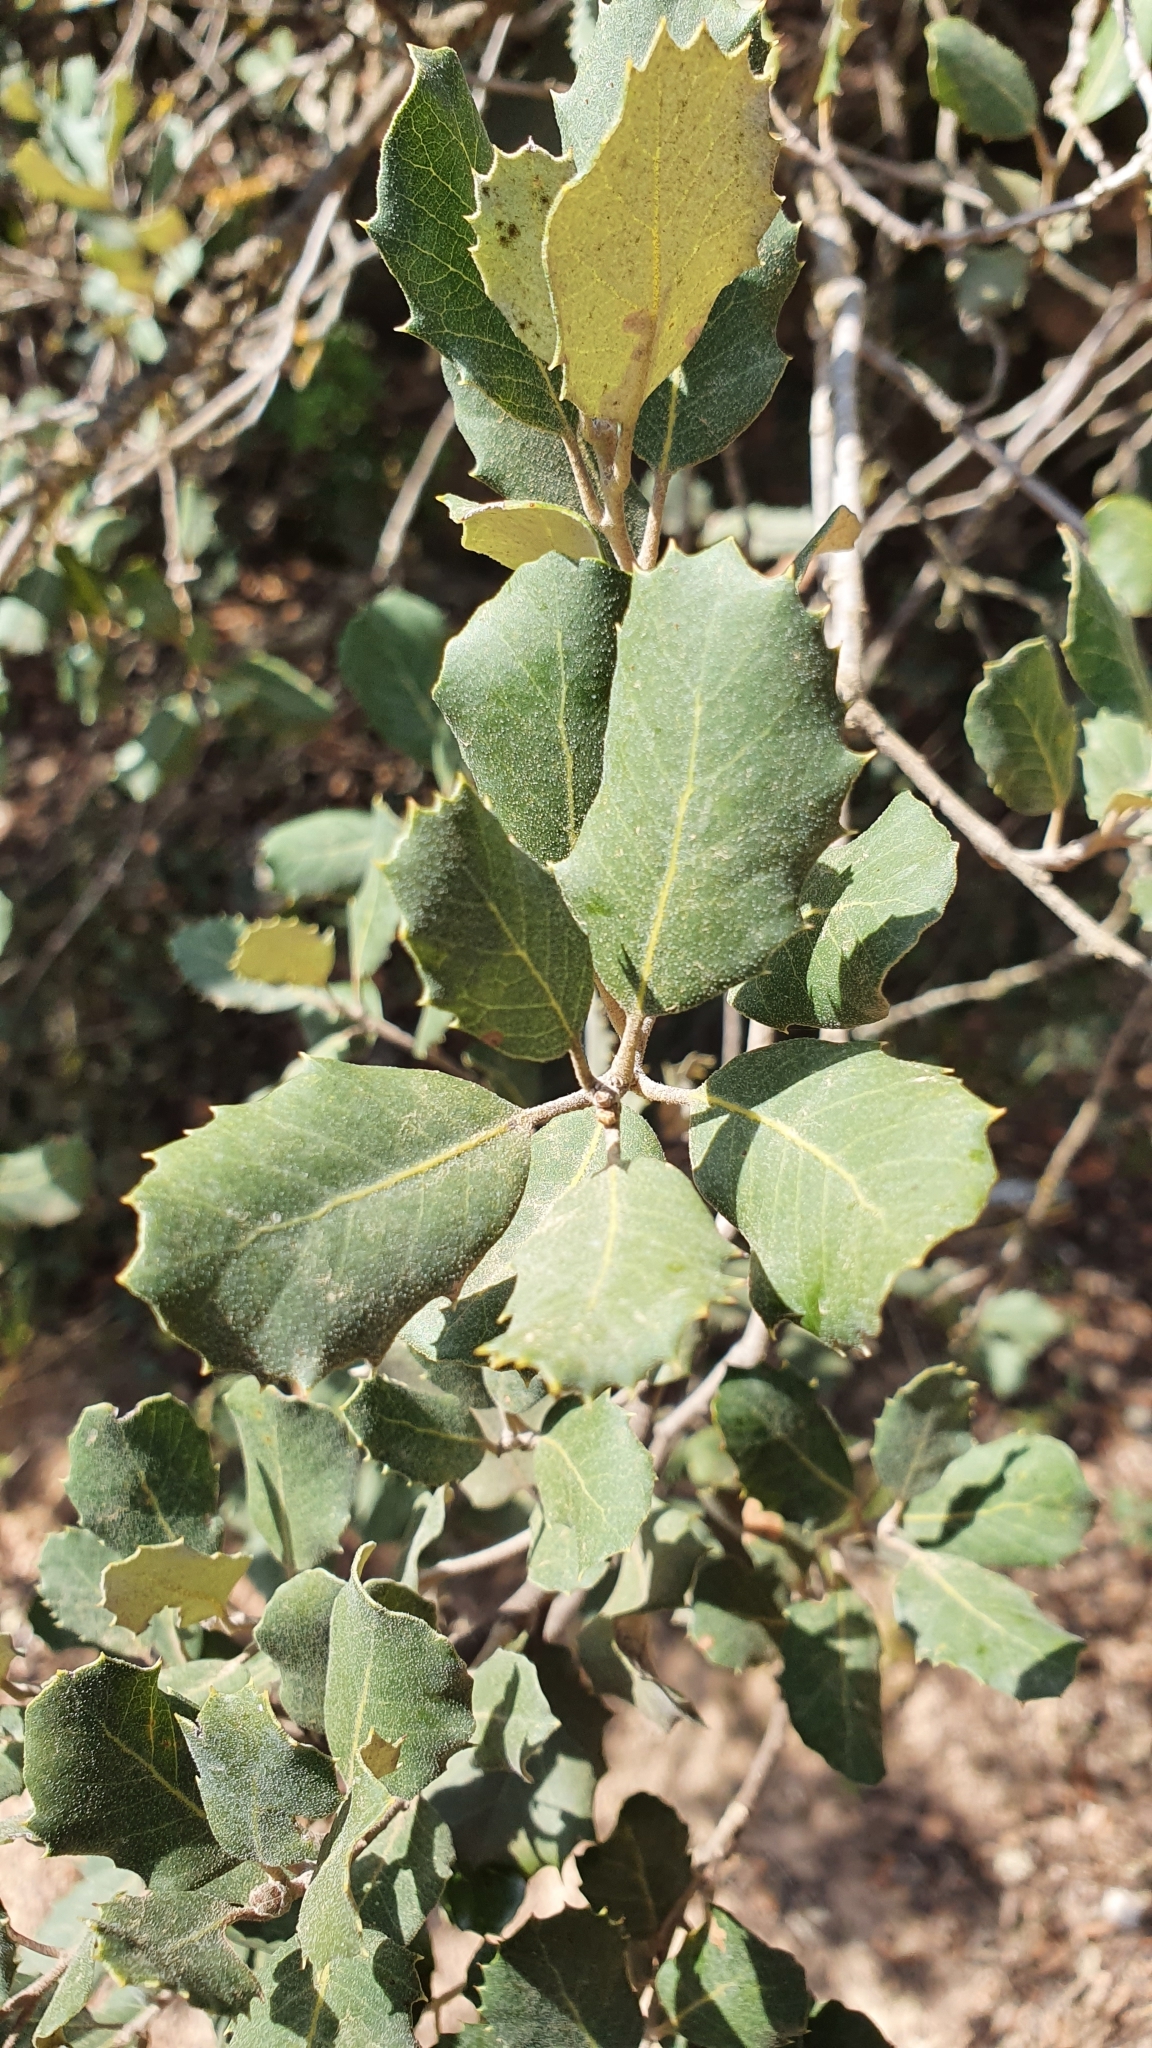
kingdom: Plantae
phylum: Tracheophyta
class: Magnoliopsida
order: Fagales
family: Fagaceae
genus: Quercus
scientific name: Quercus rotundifolia
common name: Holm oak
